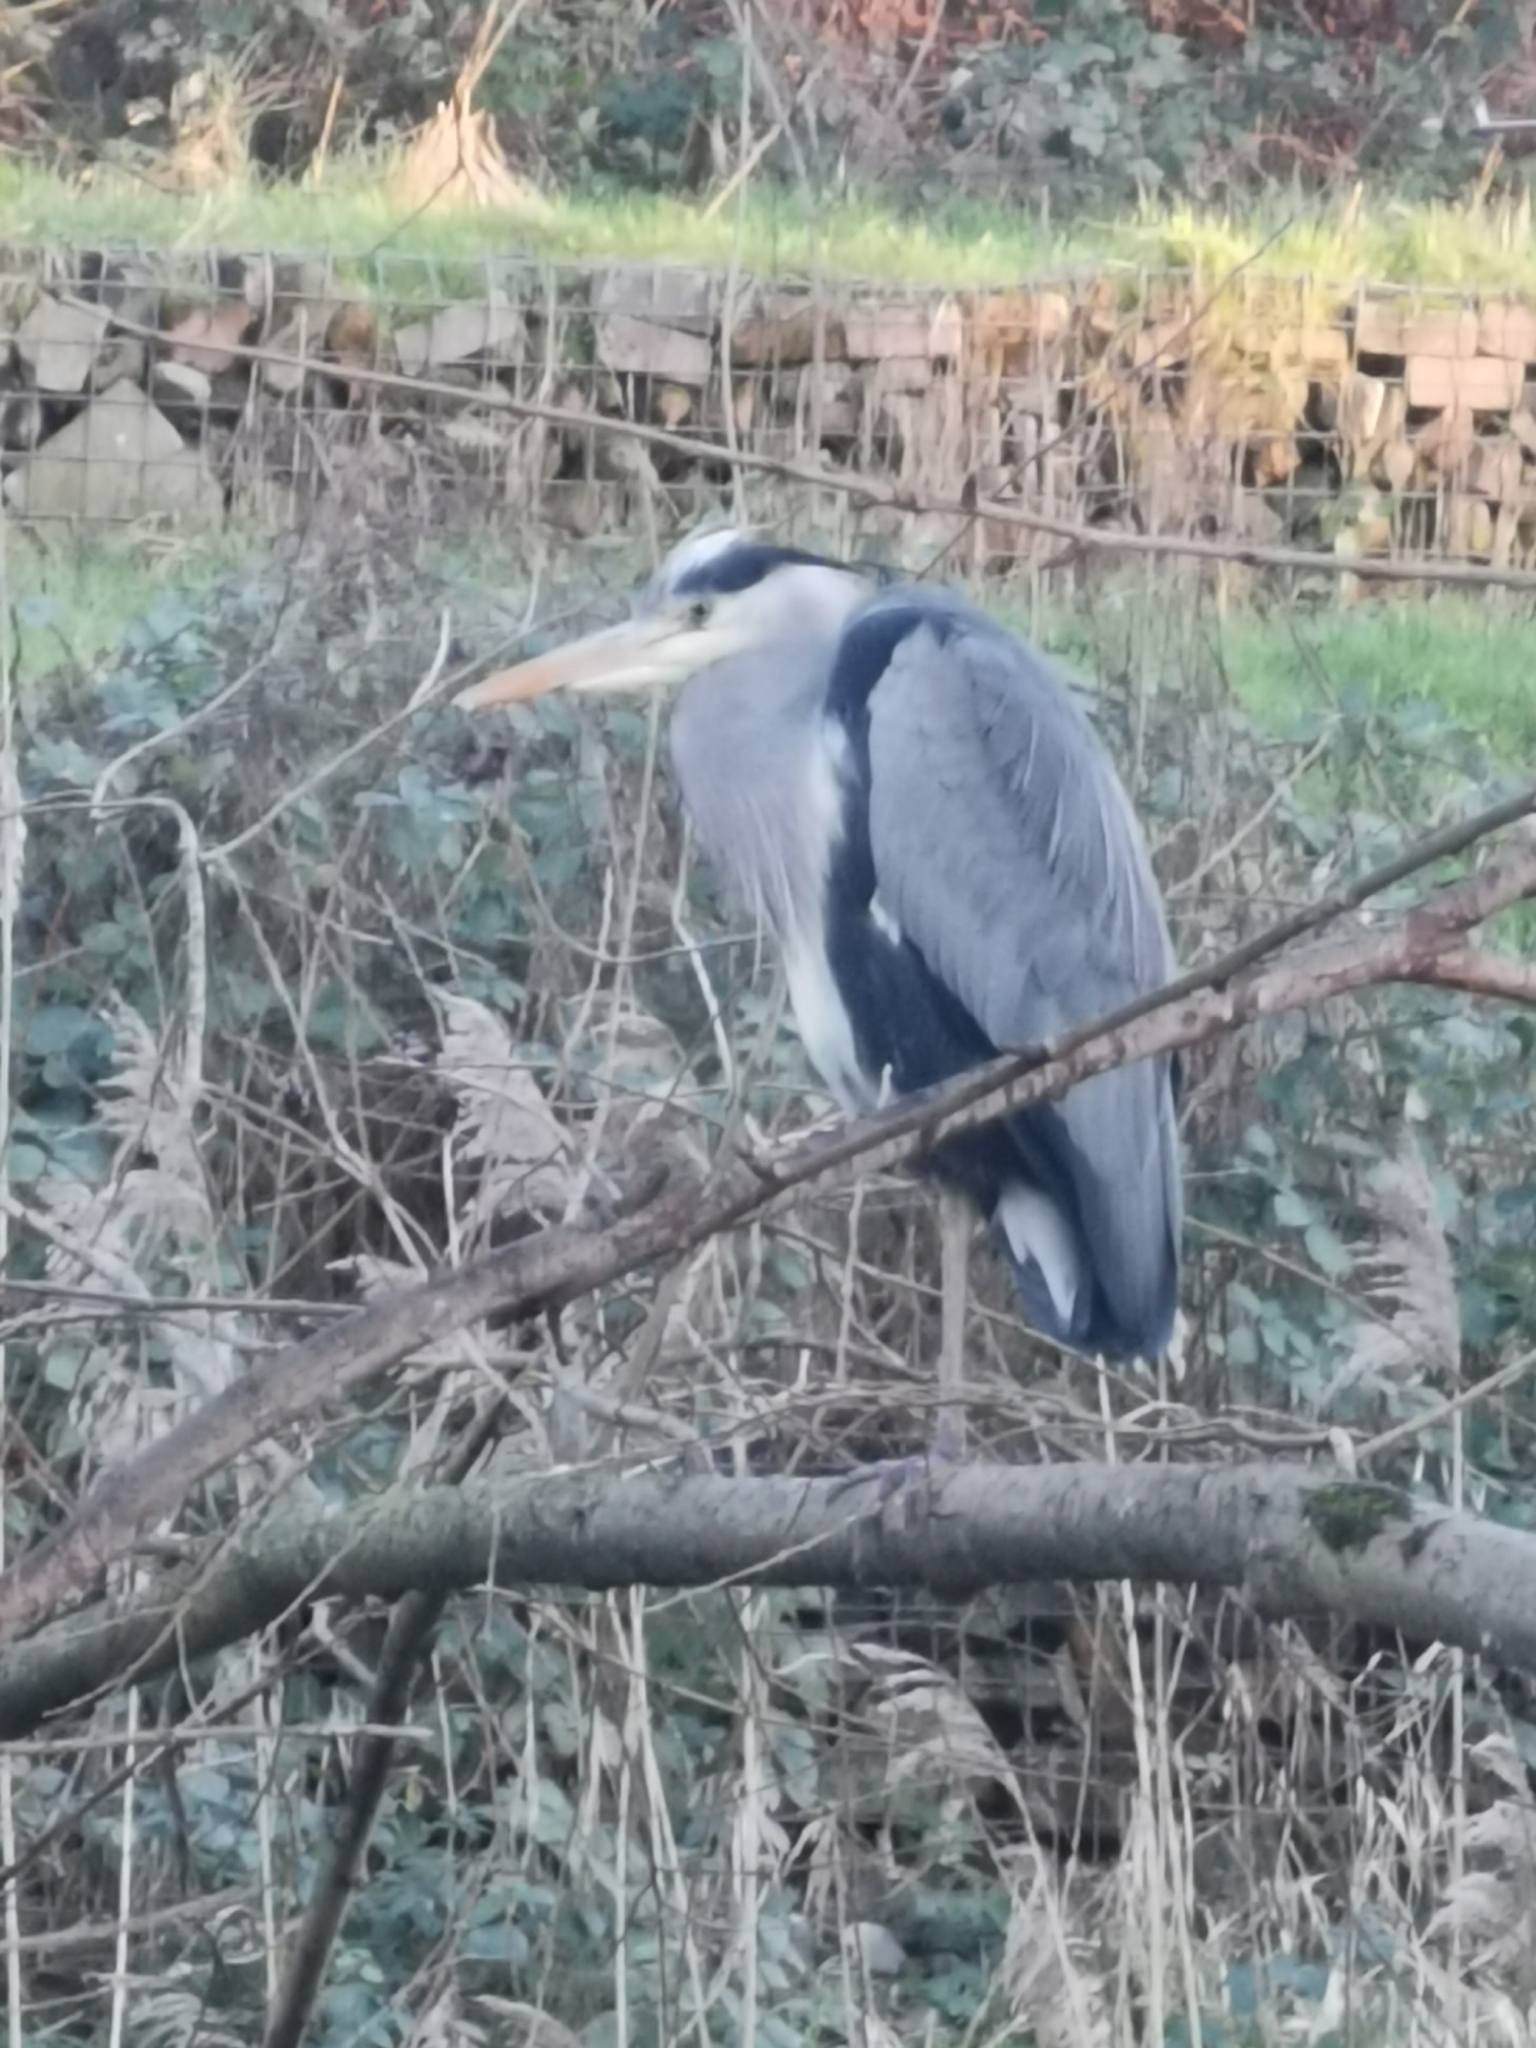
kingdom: Animalia
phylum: Chordata
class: Aves
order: Pelecaniformes
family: Ardeidae
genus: Ardea
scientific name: Ardea cinerea
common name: Grey heron
